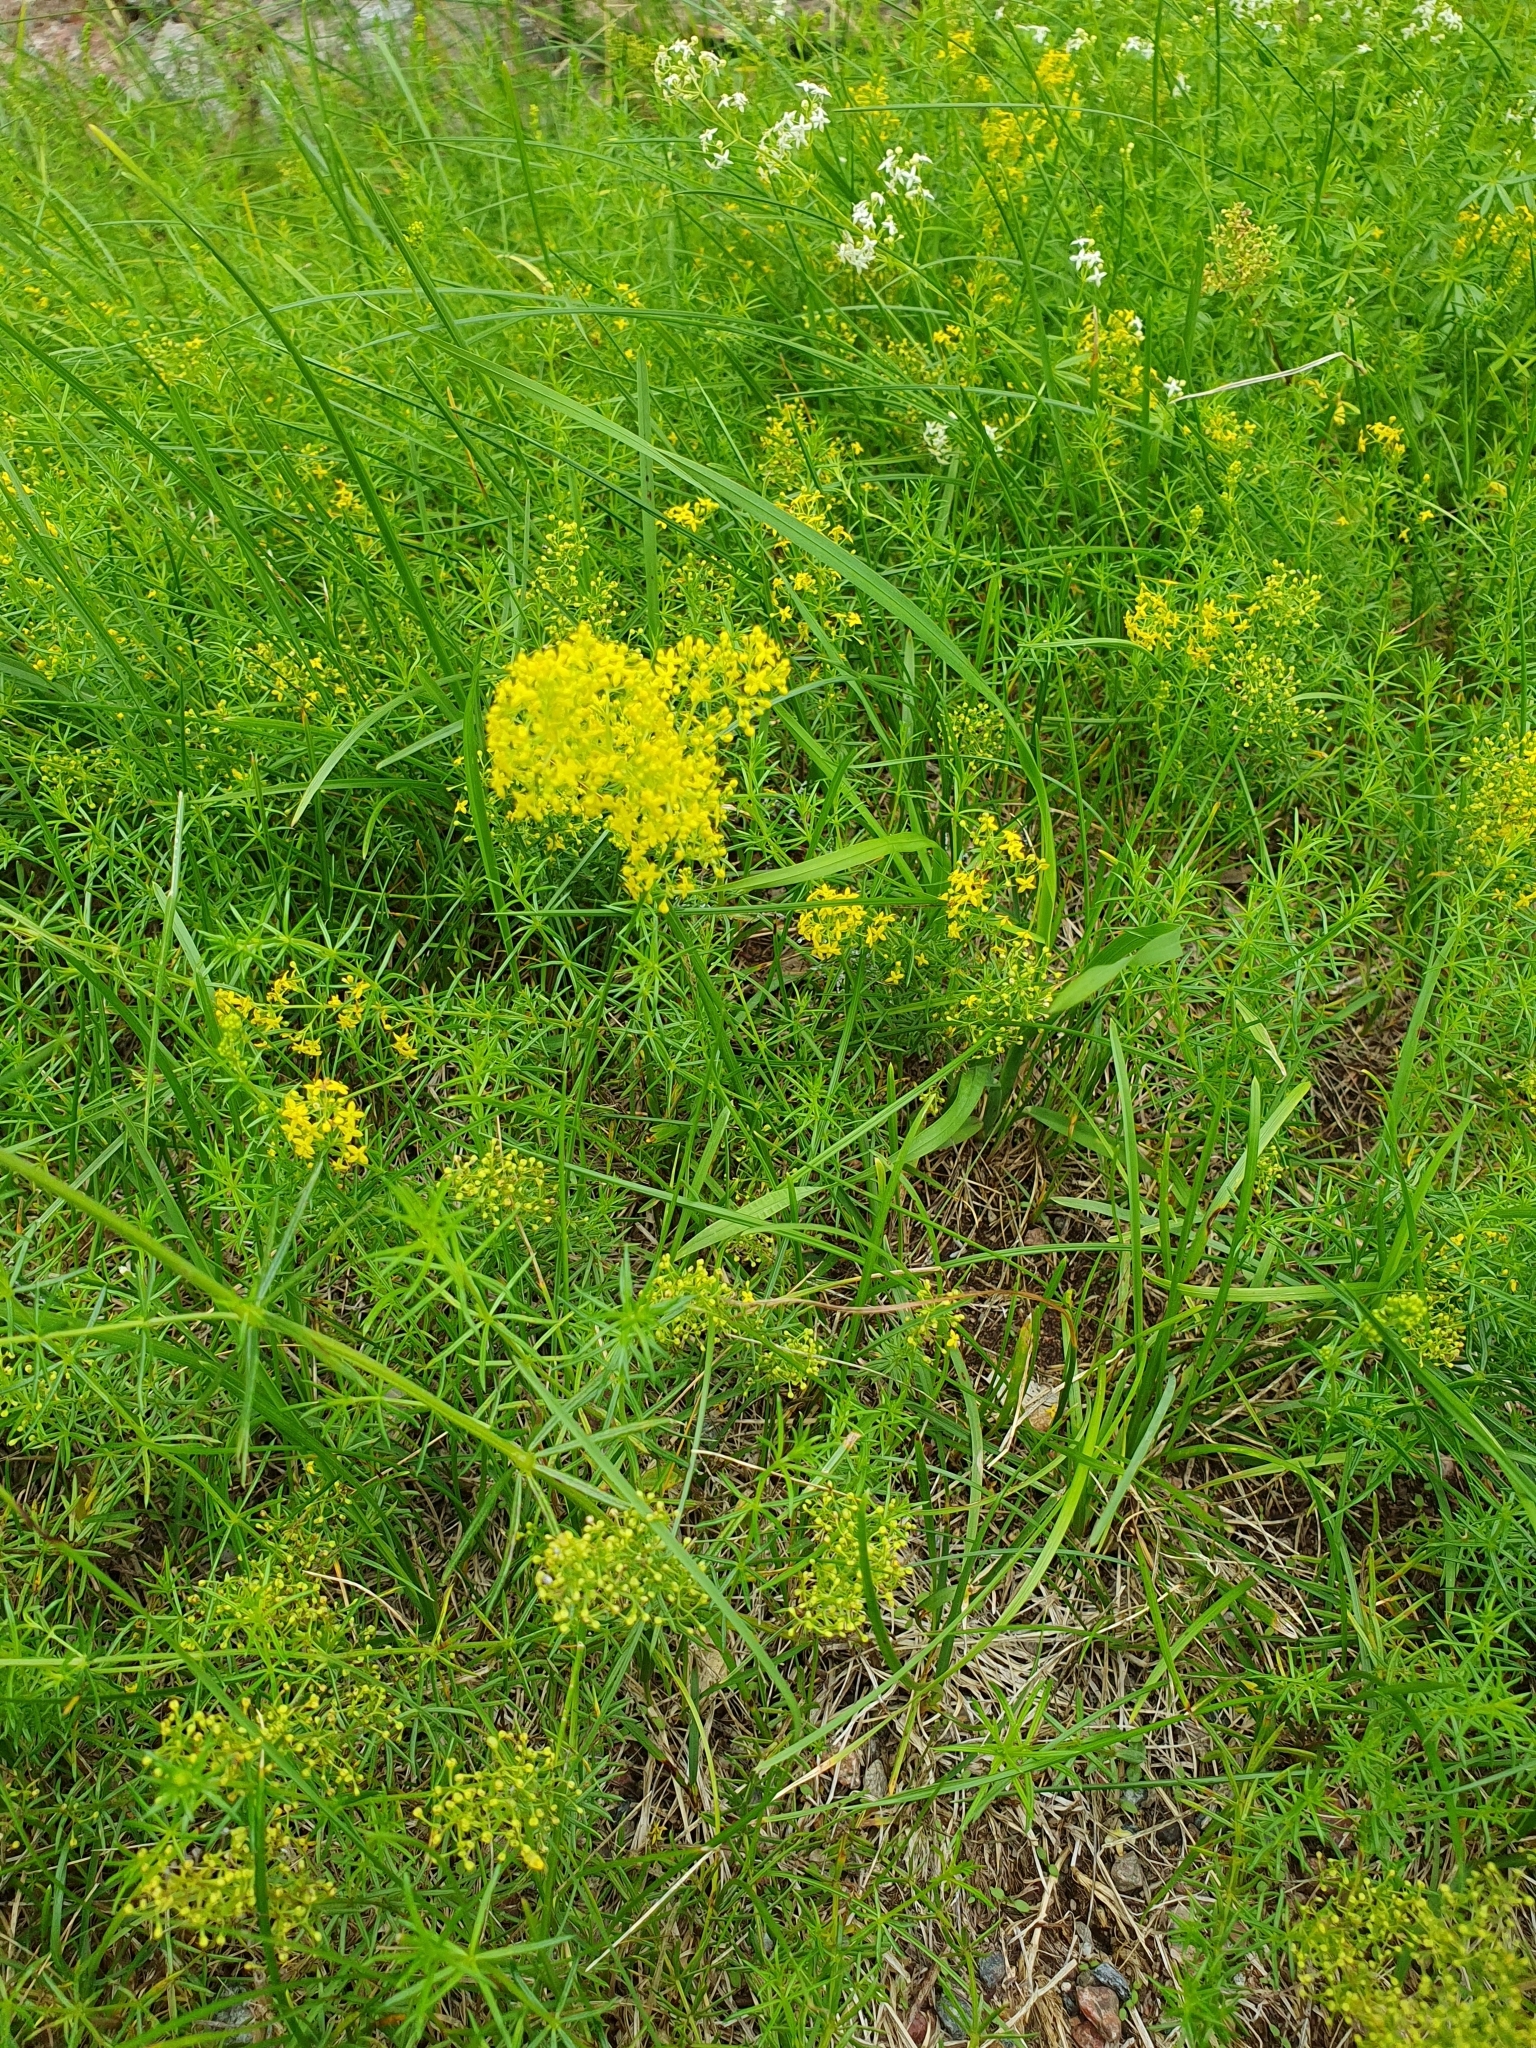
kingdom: Plantae
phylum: Tracheophyta
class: Magnoliopsida
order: Gentianales
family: Rubiaceae
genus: Galium
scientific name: Galium verum
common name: Lady's bedstraw
